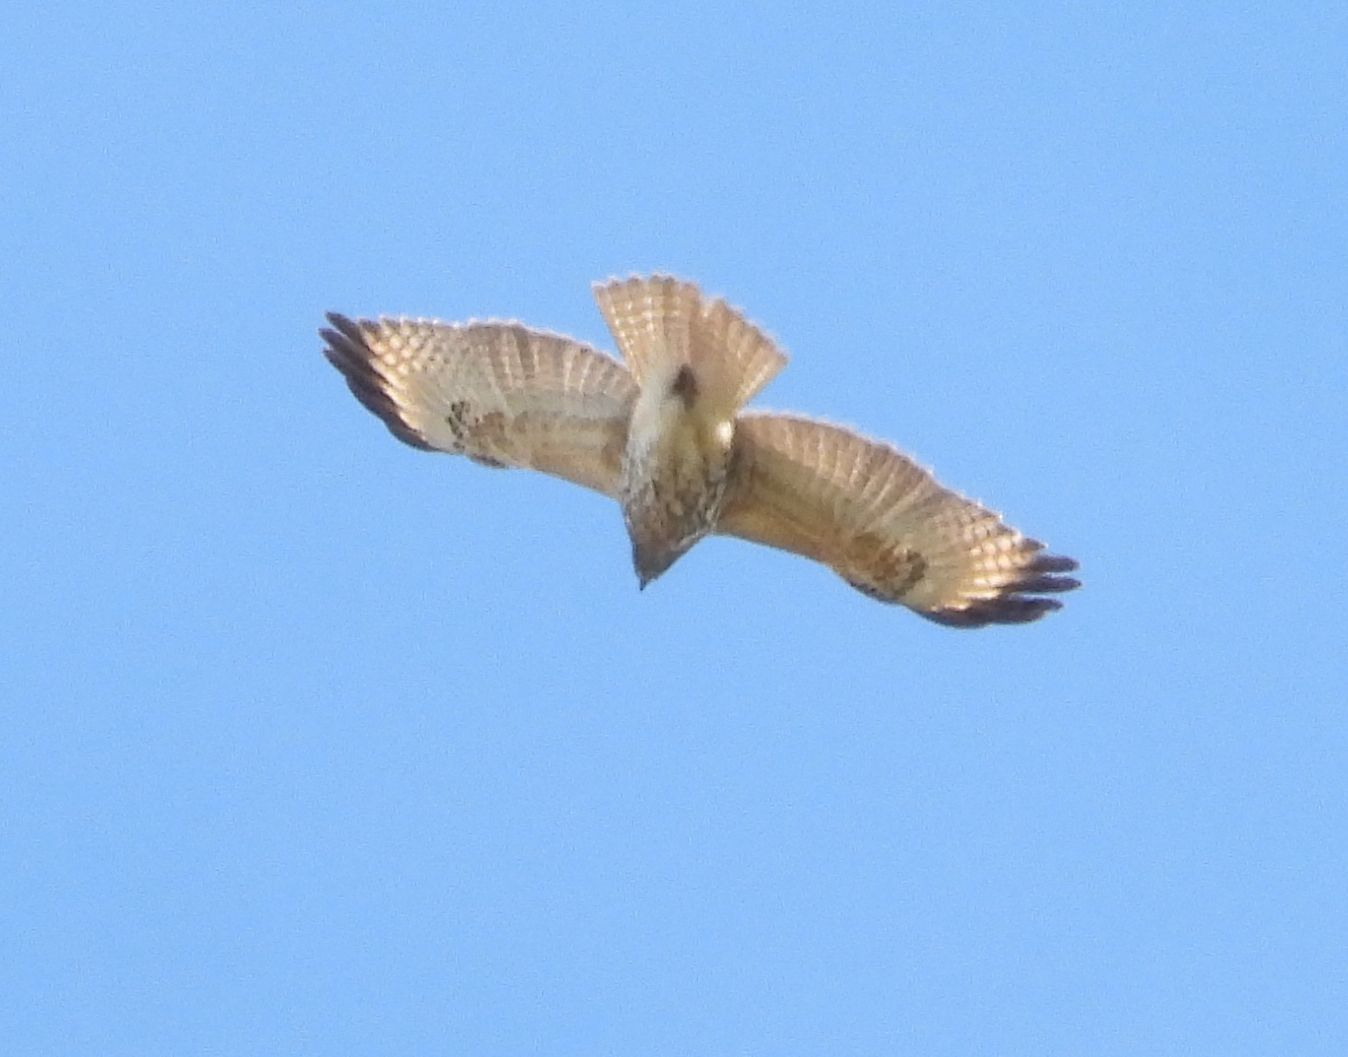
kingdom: Animalia
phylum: Chordata
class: Aves
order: Accipitriformes
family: Accipitridae
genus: Buteo
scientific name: Buteo jamaicensis
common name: Red-tailed hawk
